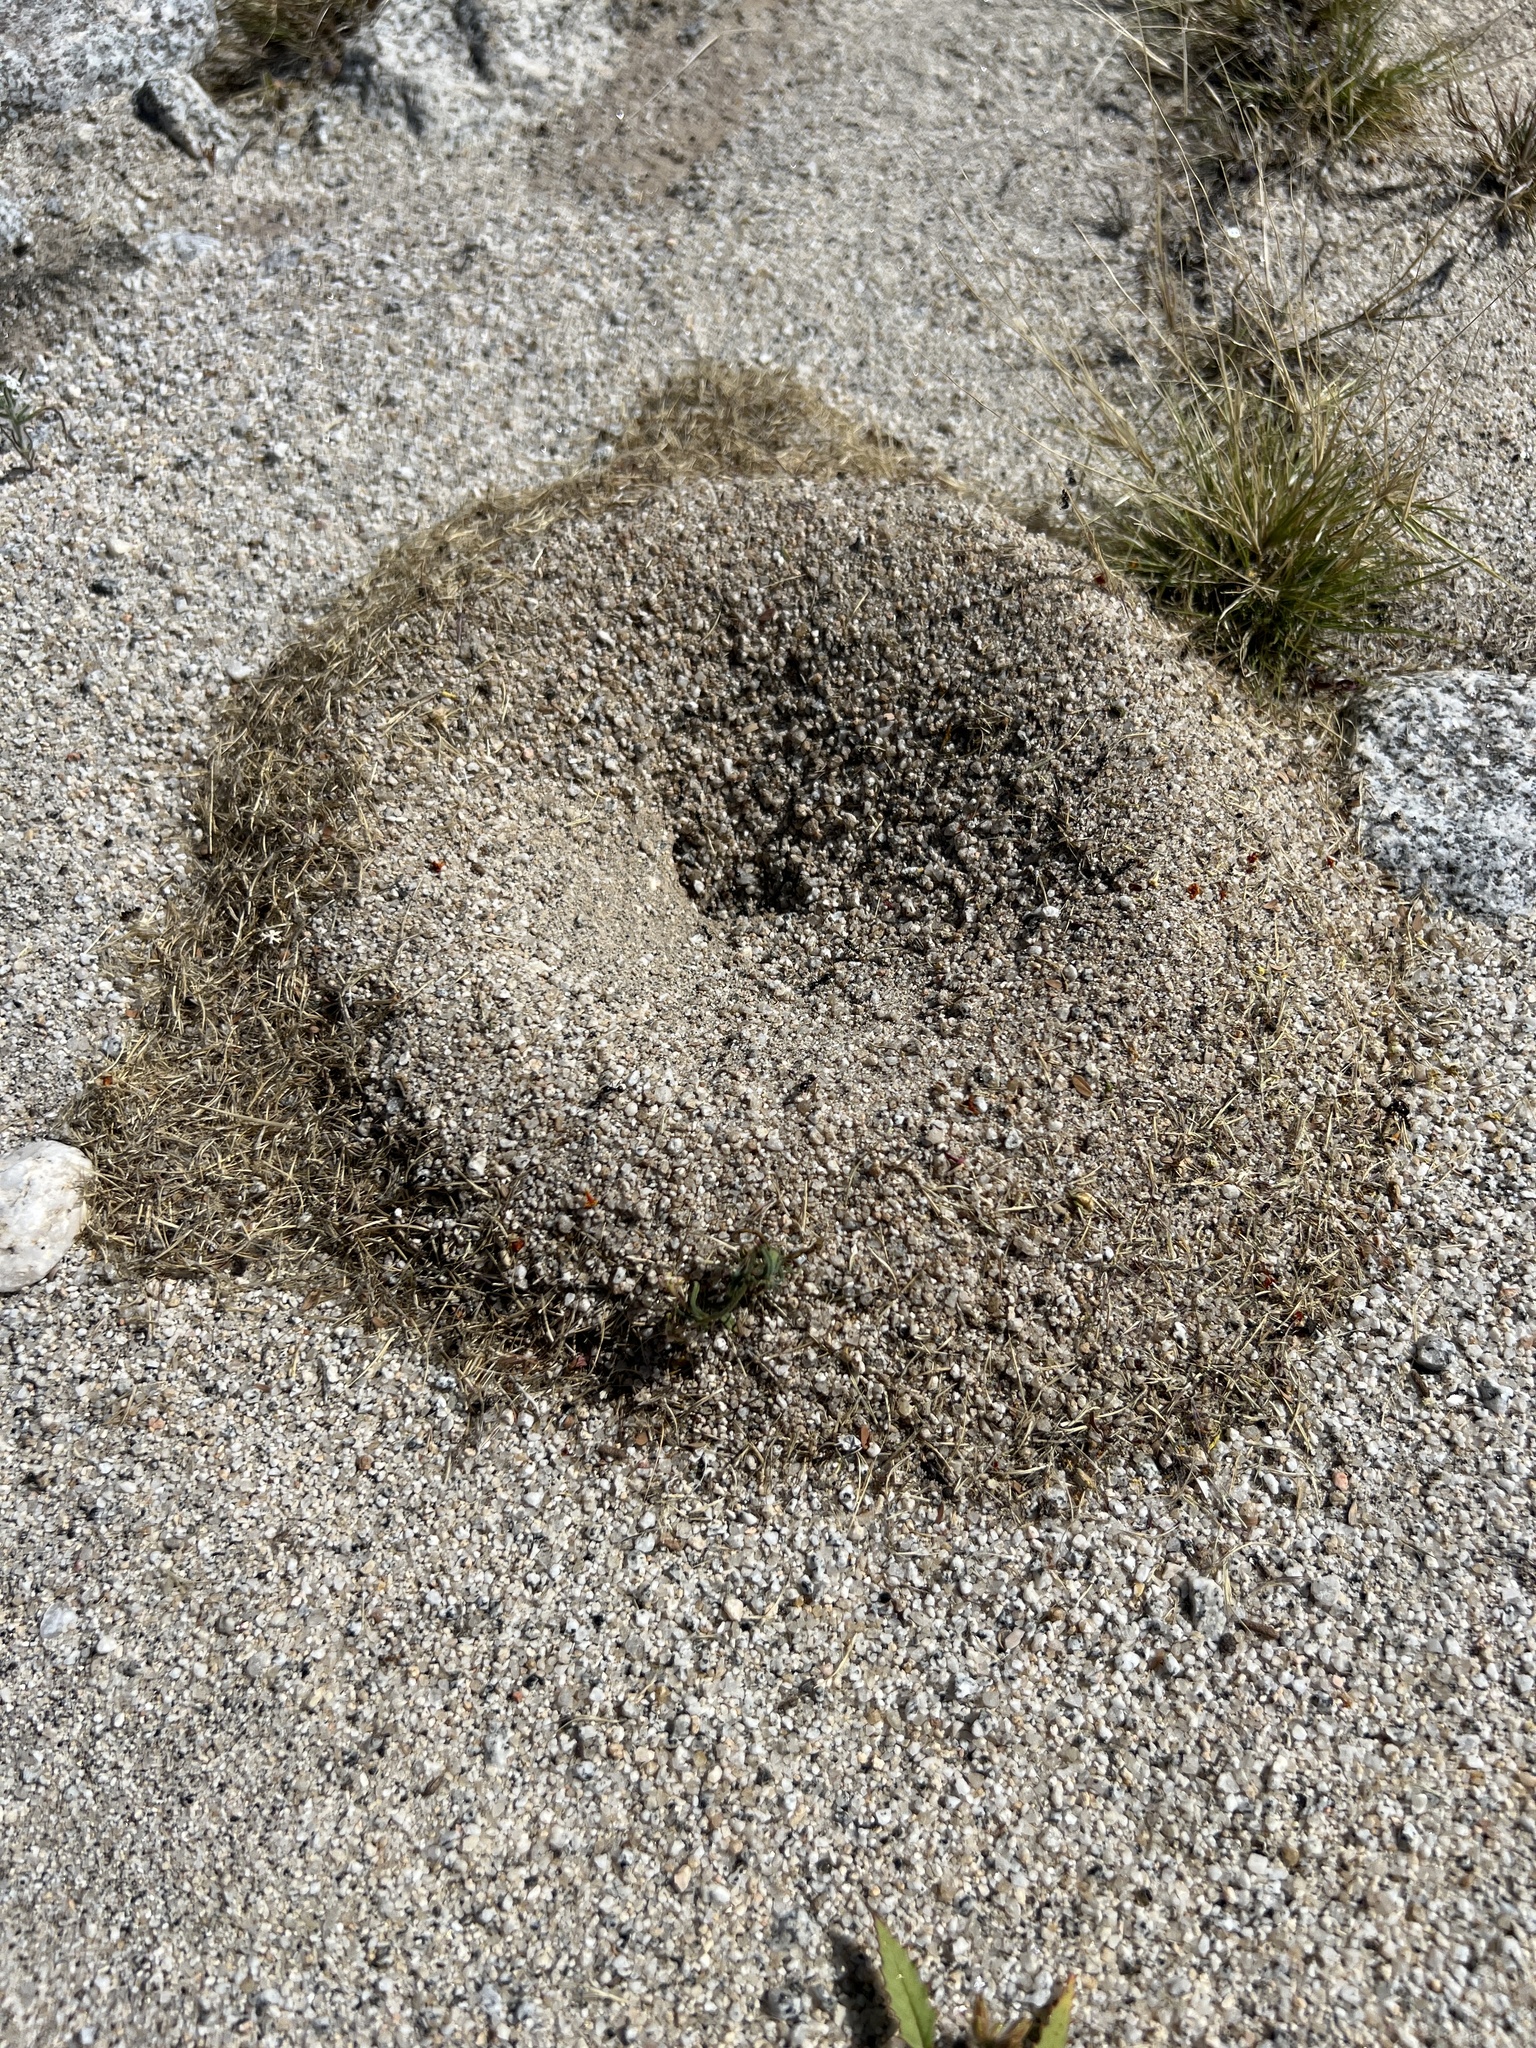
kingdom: Animalia
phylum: Arthropoda
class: Insecta
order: Hymenoptera
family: Formicidae
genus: Messor
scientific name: Messor pergandei
